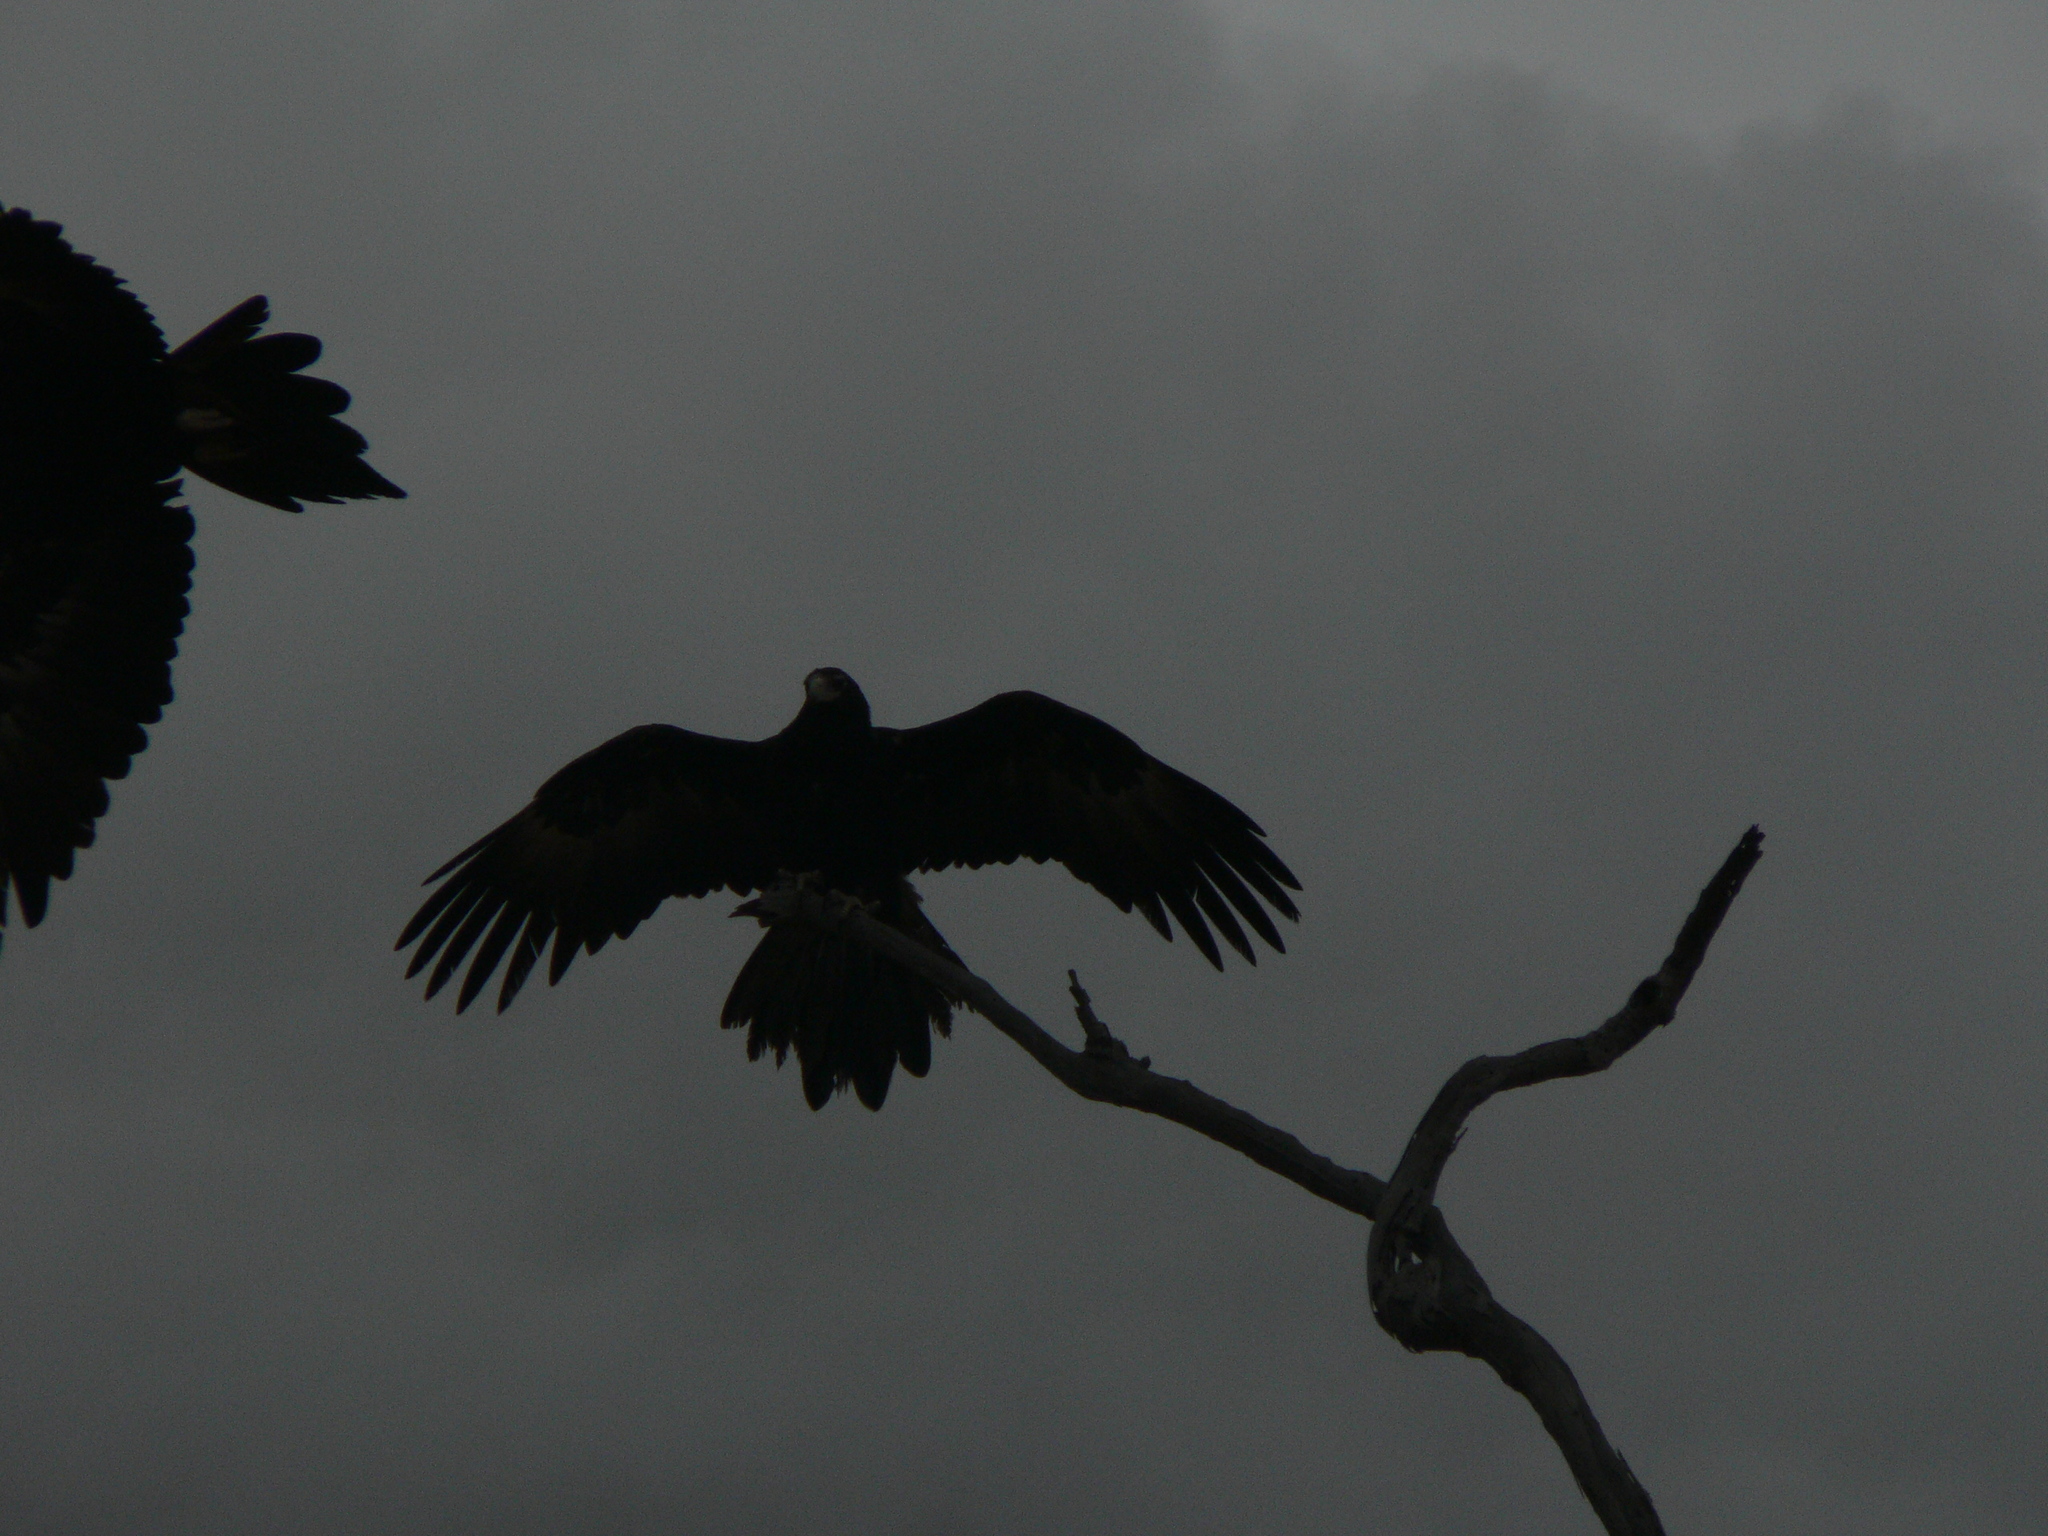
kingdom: Animalia
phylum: Chordata
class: Aves
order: Accipitriformes
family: Accipitridae
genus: Aquila
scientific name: Aquila audax
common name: Wedge-tailed eagle
